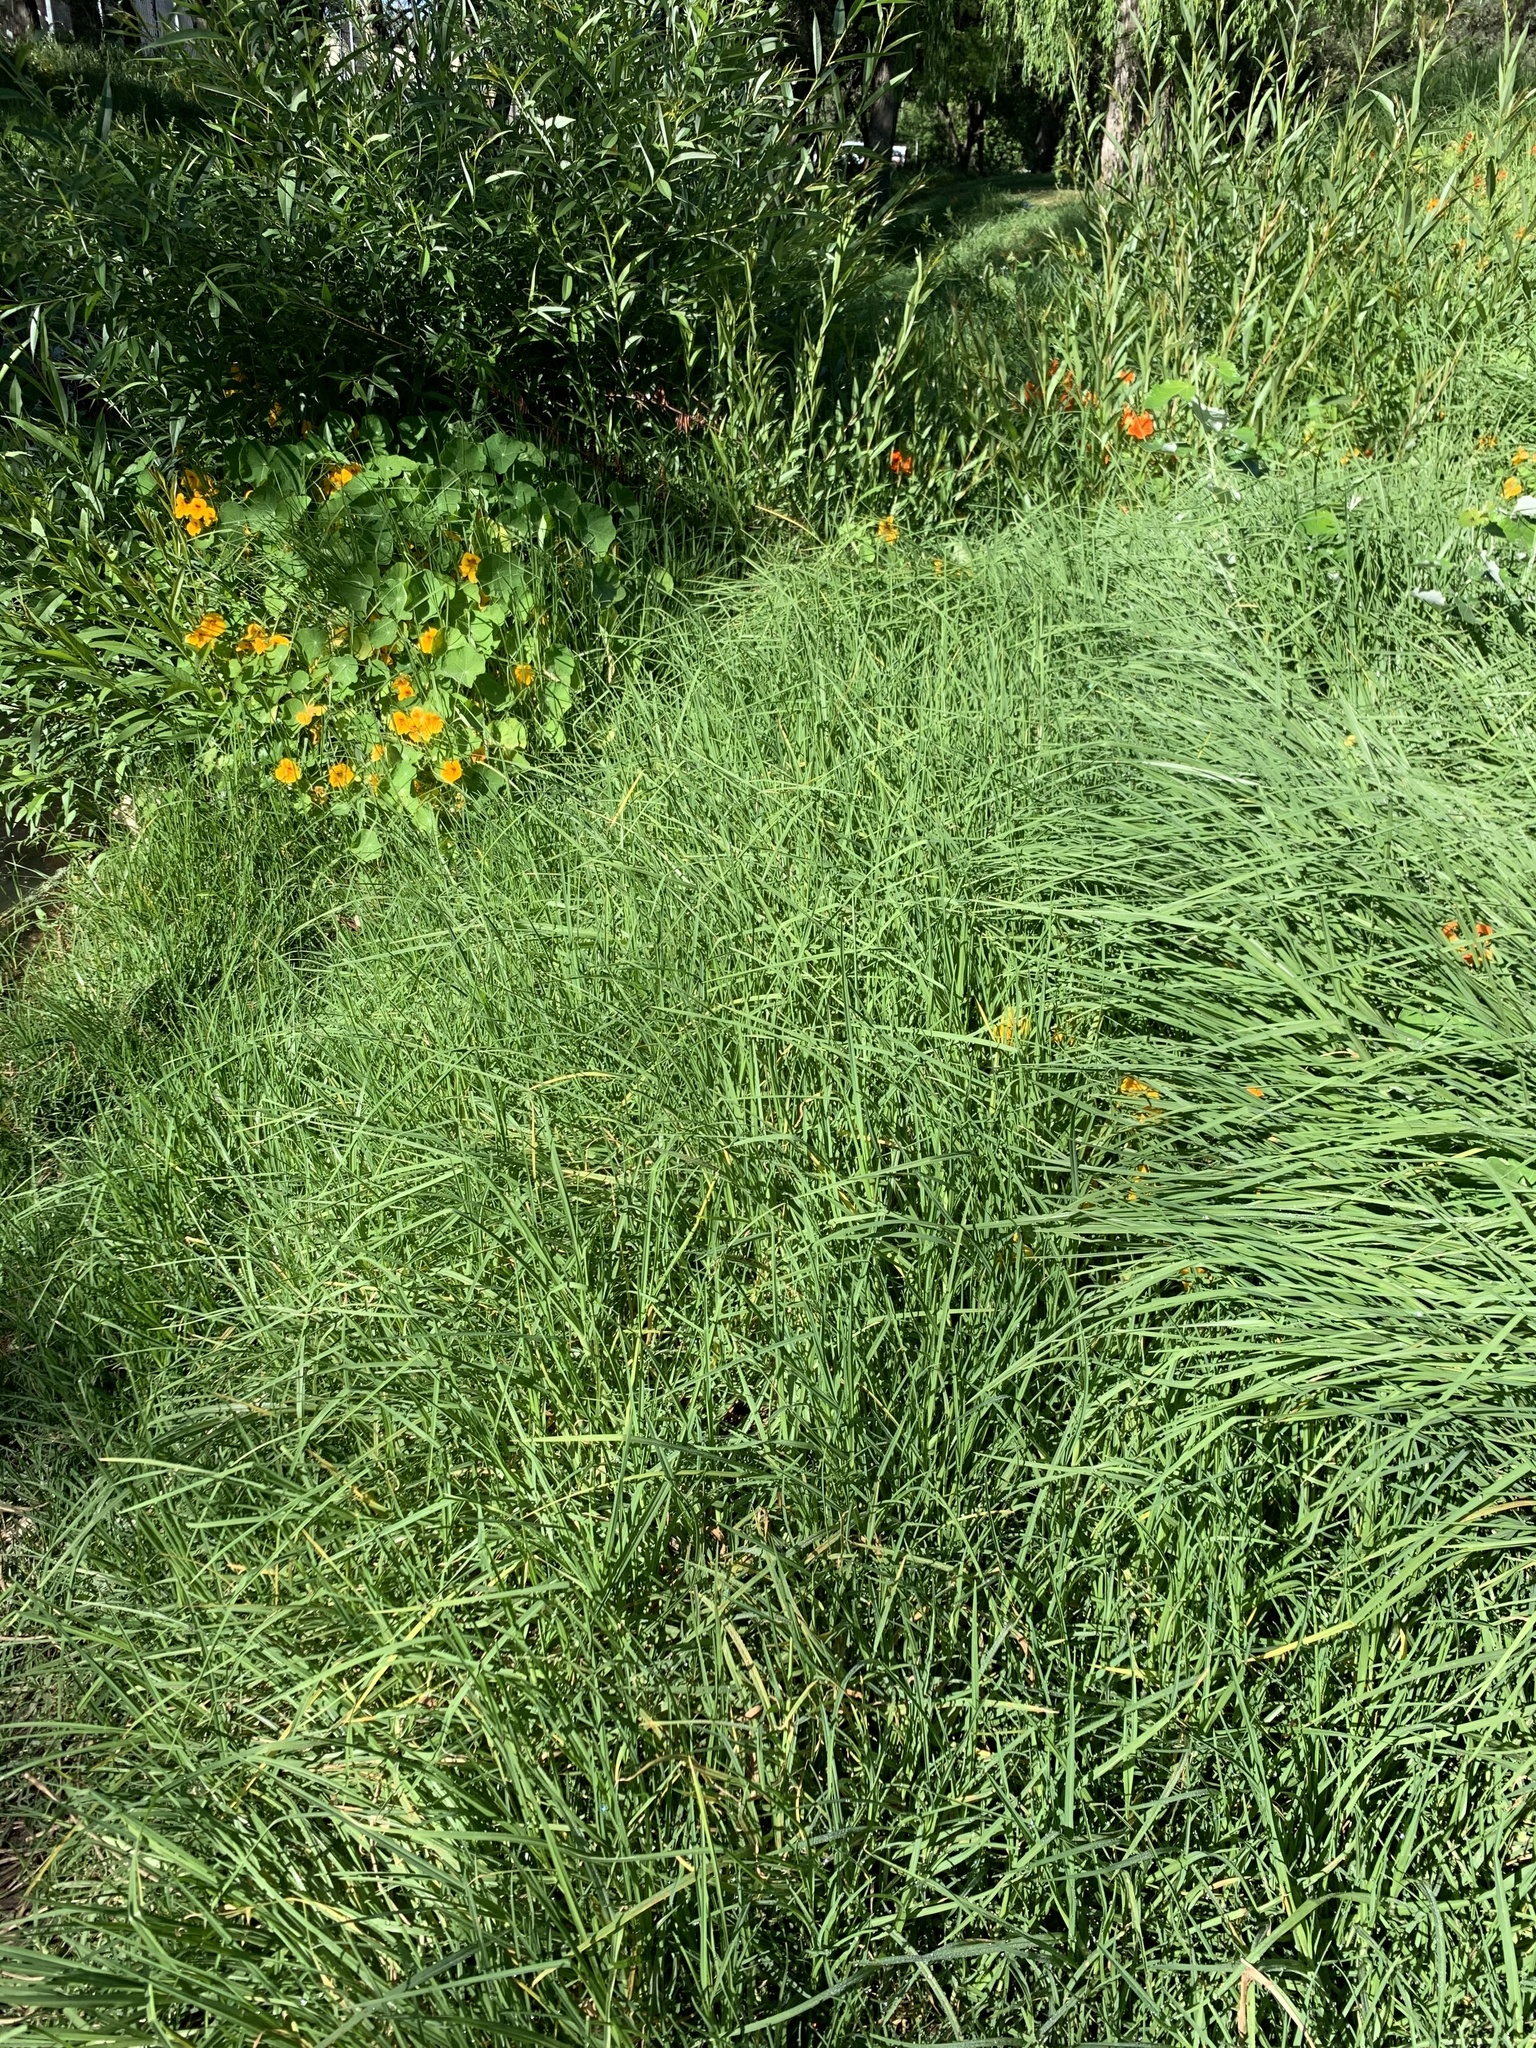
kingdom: Plantae
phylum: Tracheophyta
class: Liliopsida
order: Poales
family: Poaceae
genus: Cenchrus
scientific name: Cenchrus clandestinus
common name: Kikuyugrass
